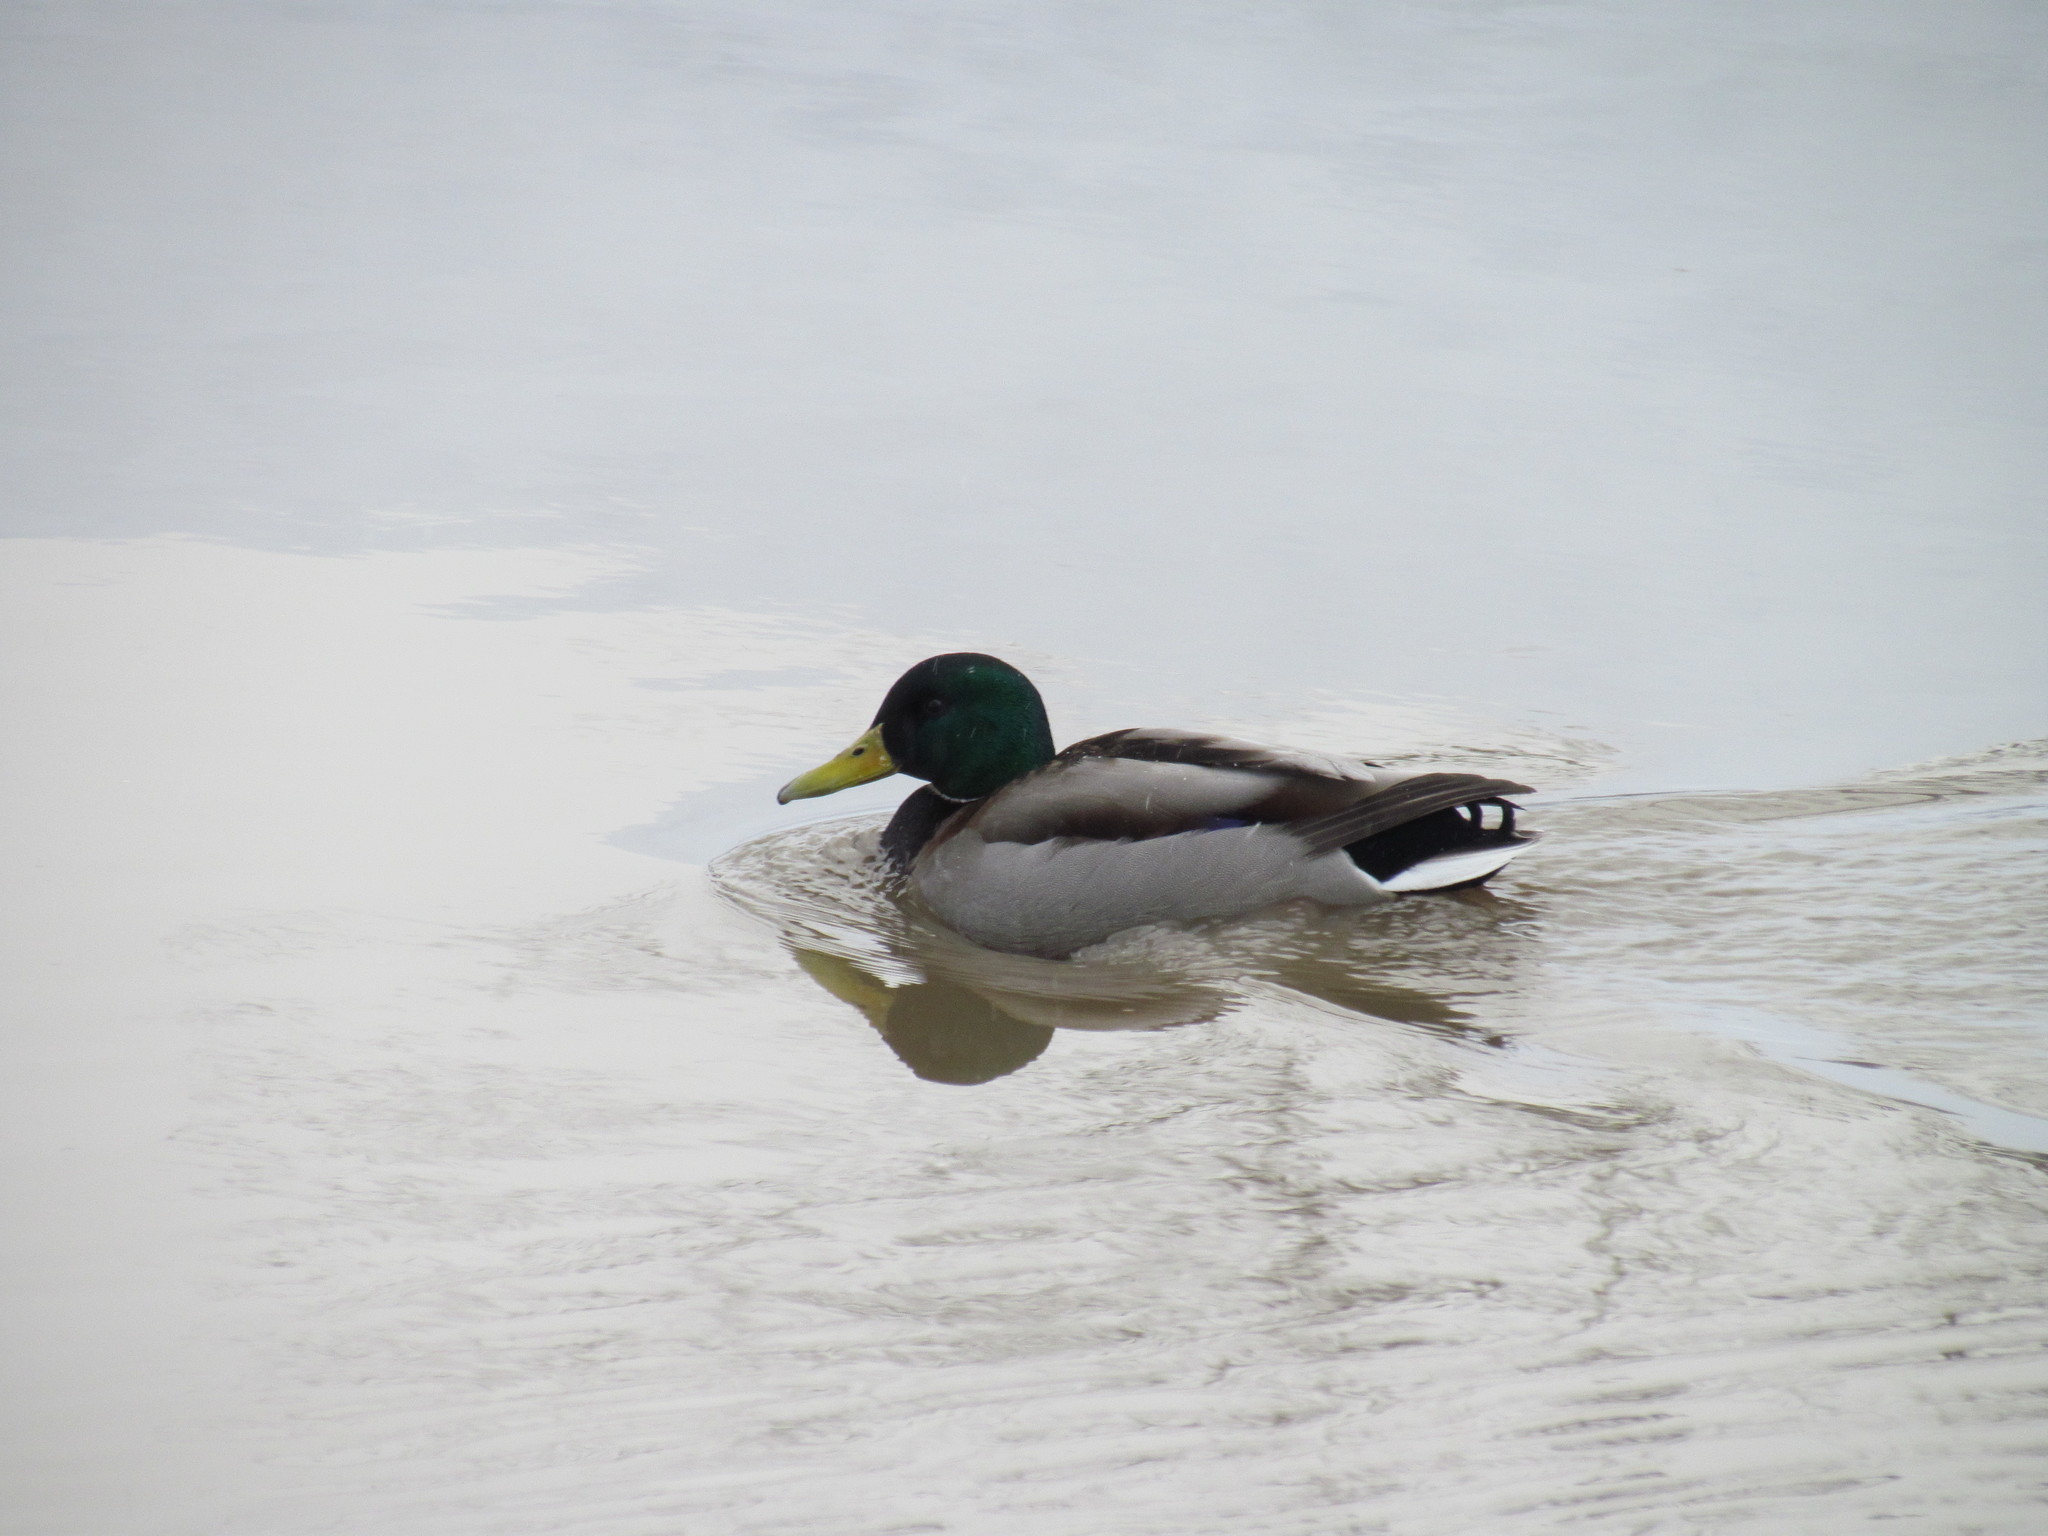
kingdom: Animalia
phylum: Chordata
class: Aves
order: Anseriformes
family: Anatidae
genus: Anas
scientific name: Anas platyrhynchos
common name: Mallard
